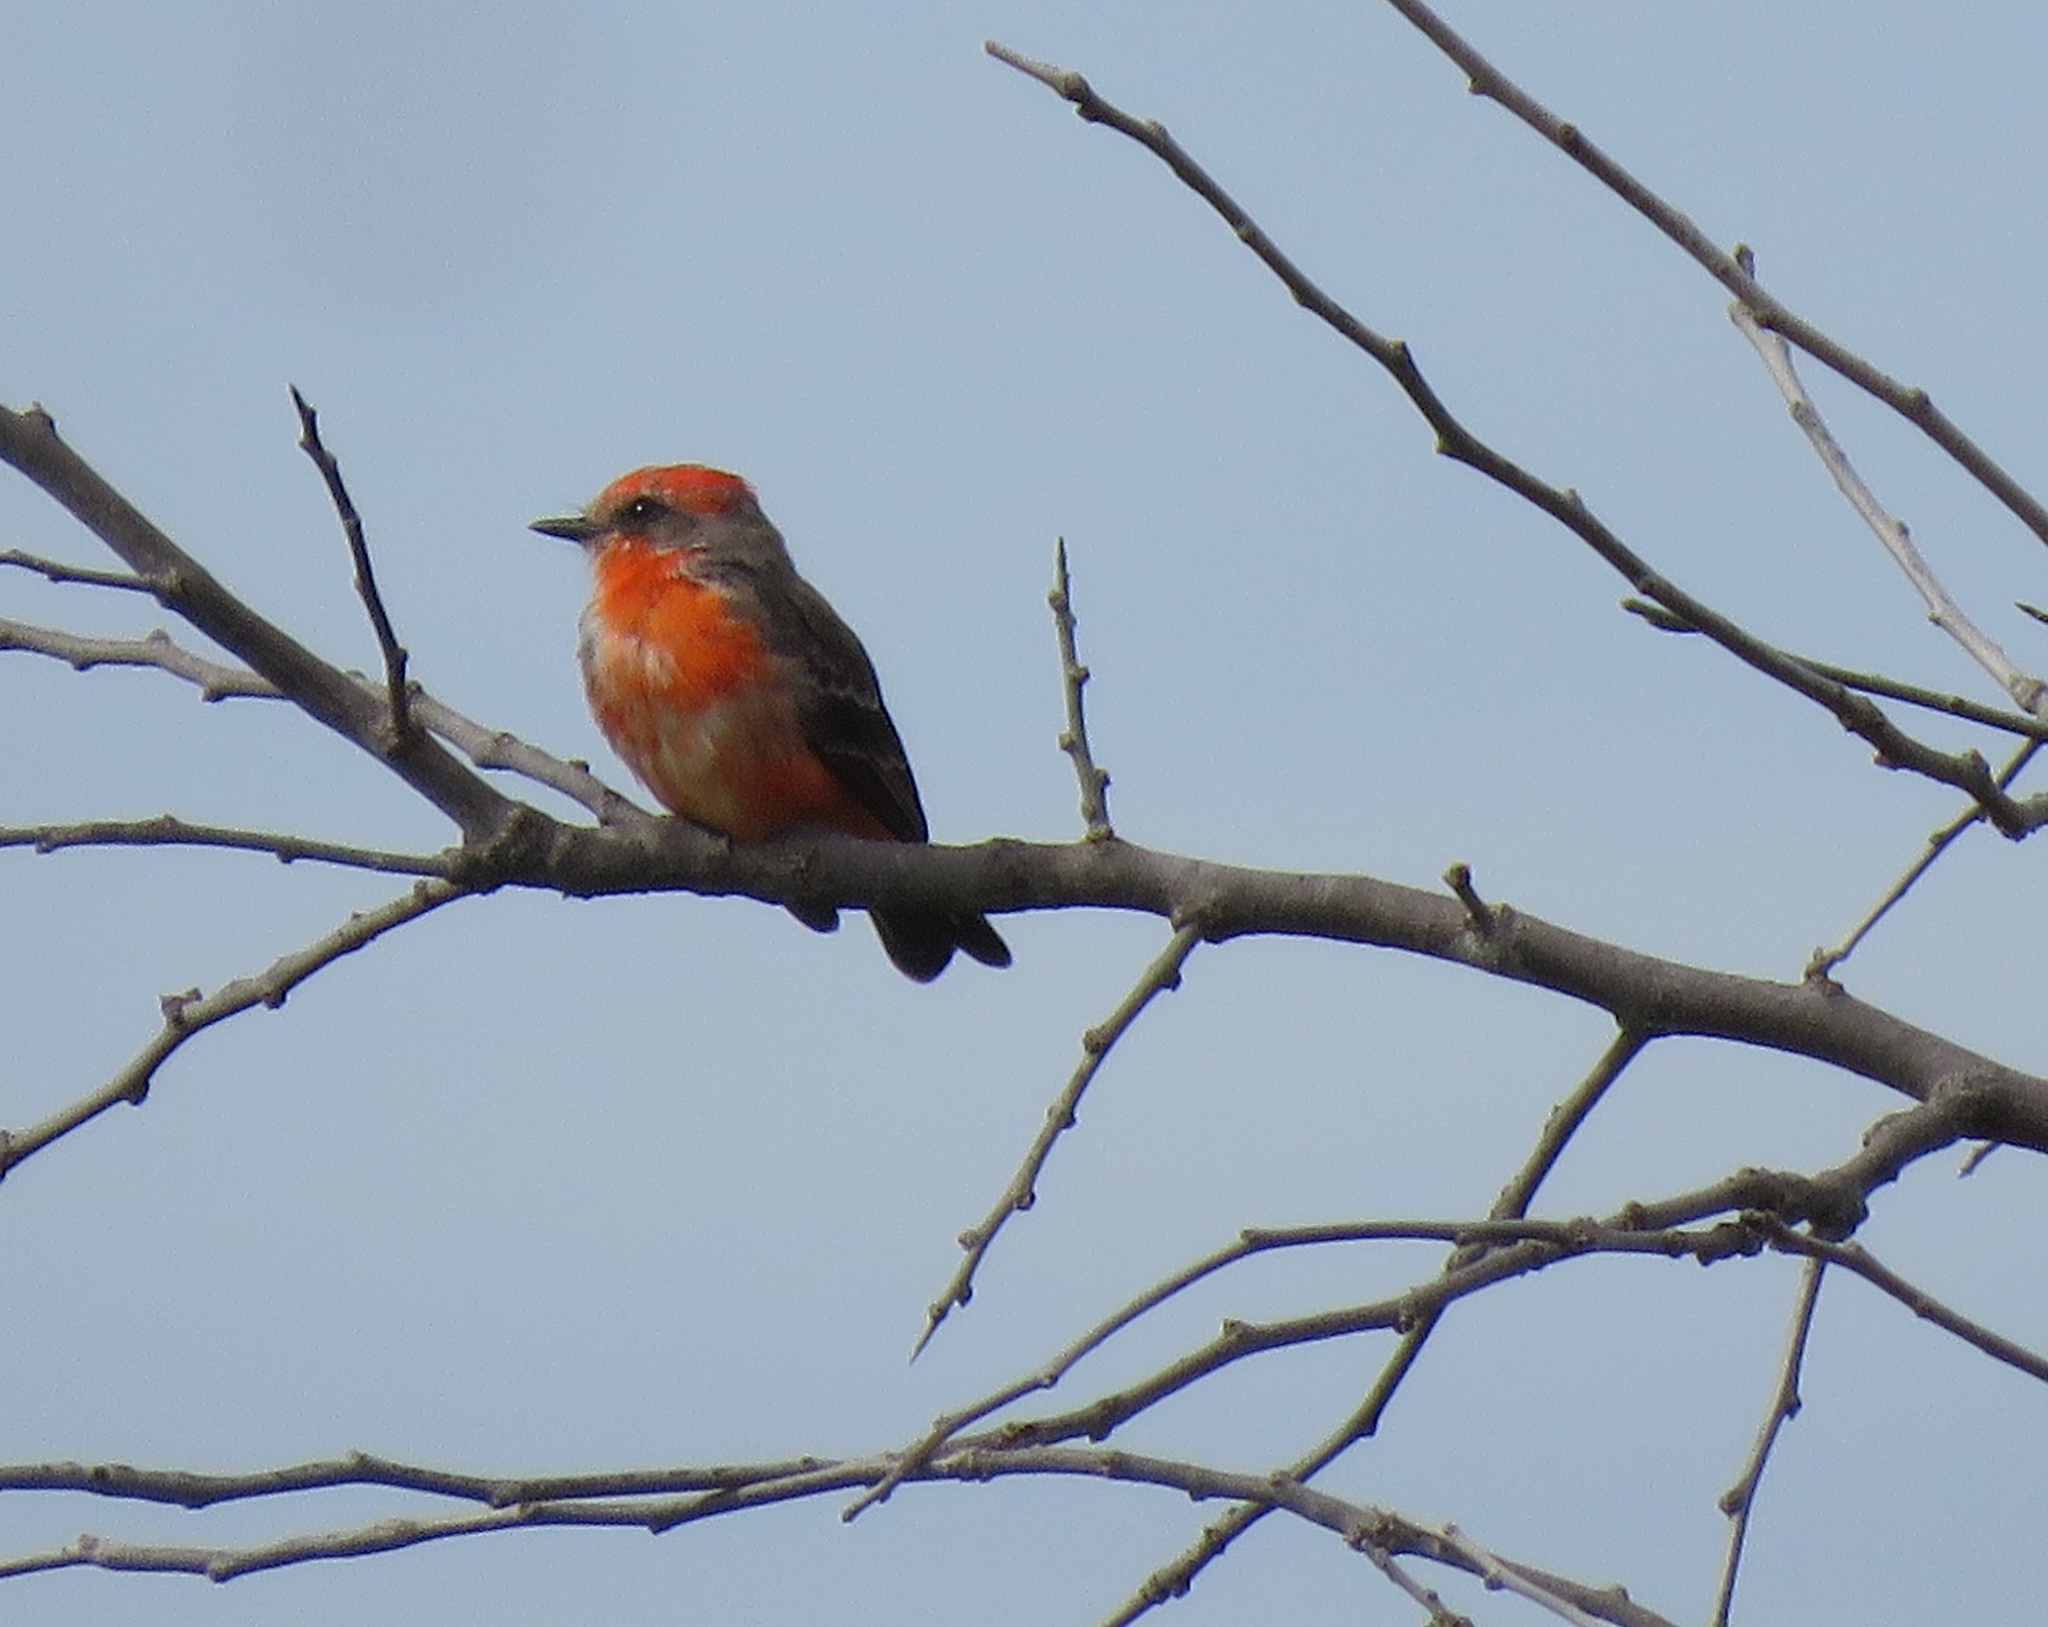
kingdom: Animalia
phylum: Chordata
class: Aves
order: Passeriformes
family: Tyrannidae
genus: Pyrocephalus
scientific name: Pyrocephalus rubinus
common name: Vermilion flycatcher
